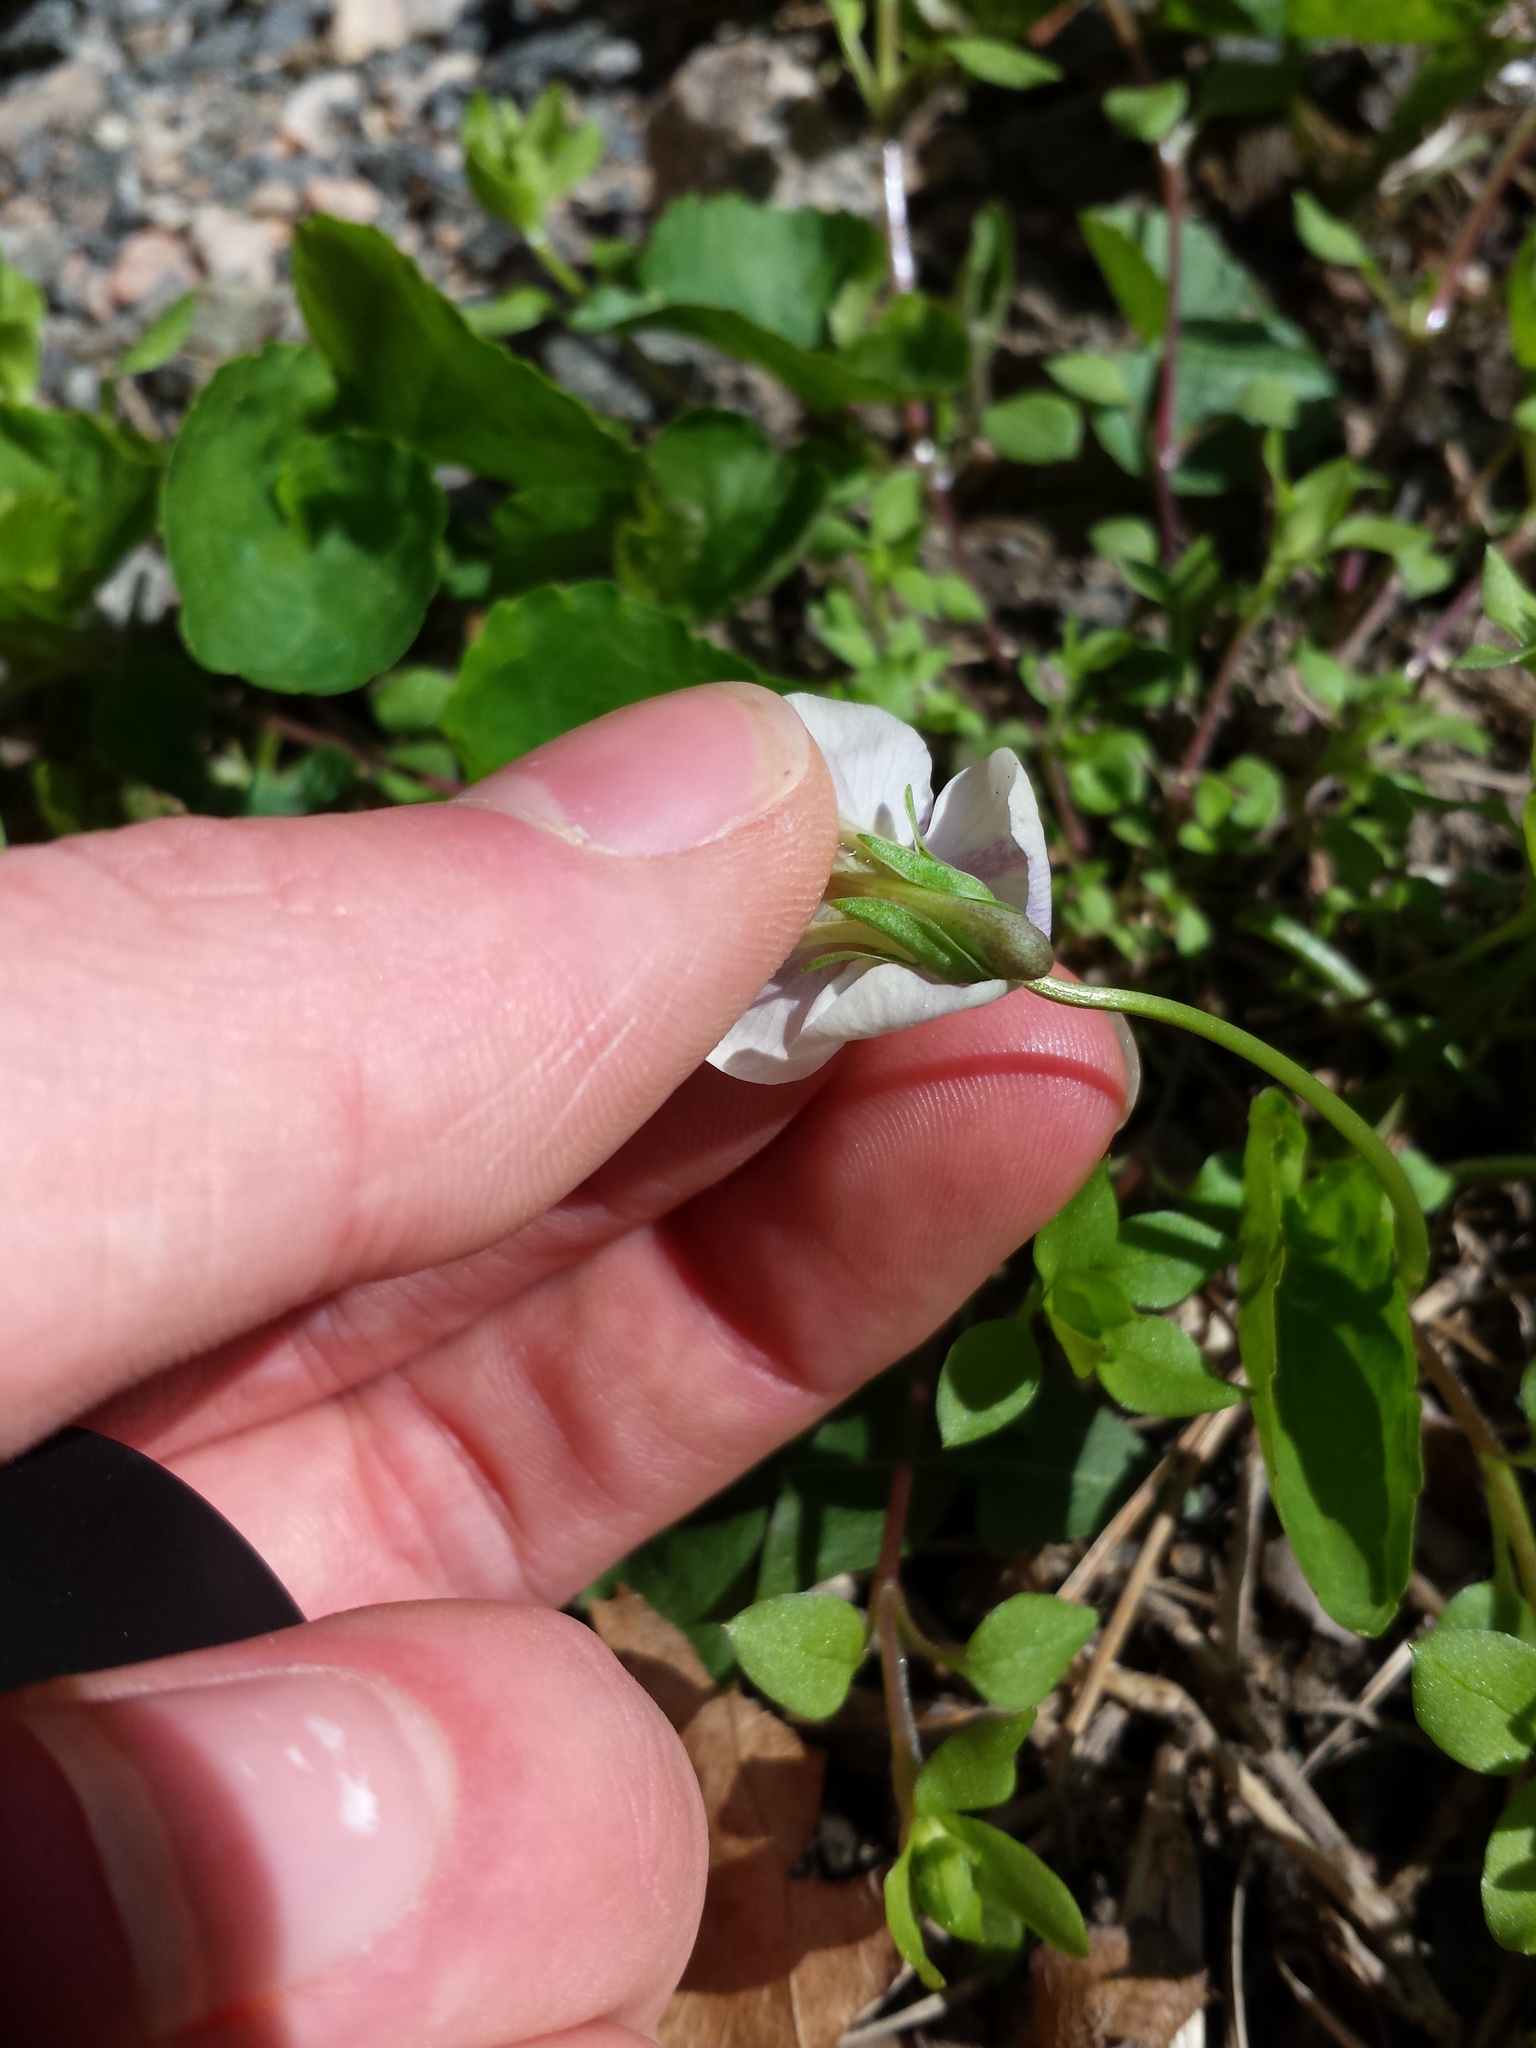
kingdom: Plantae
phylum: Tracheophyta
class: Magnoliopsida
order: Malpighiales
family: Violaceae
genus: Viola
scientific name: Viola sororia
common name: Dooryard violet
